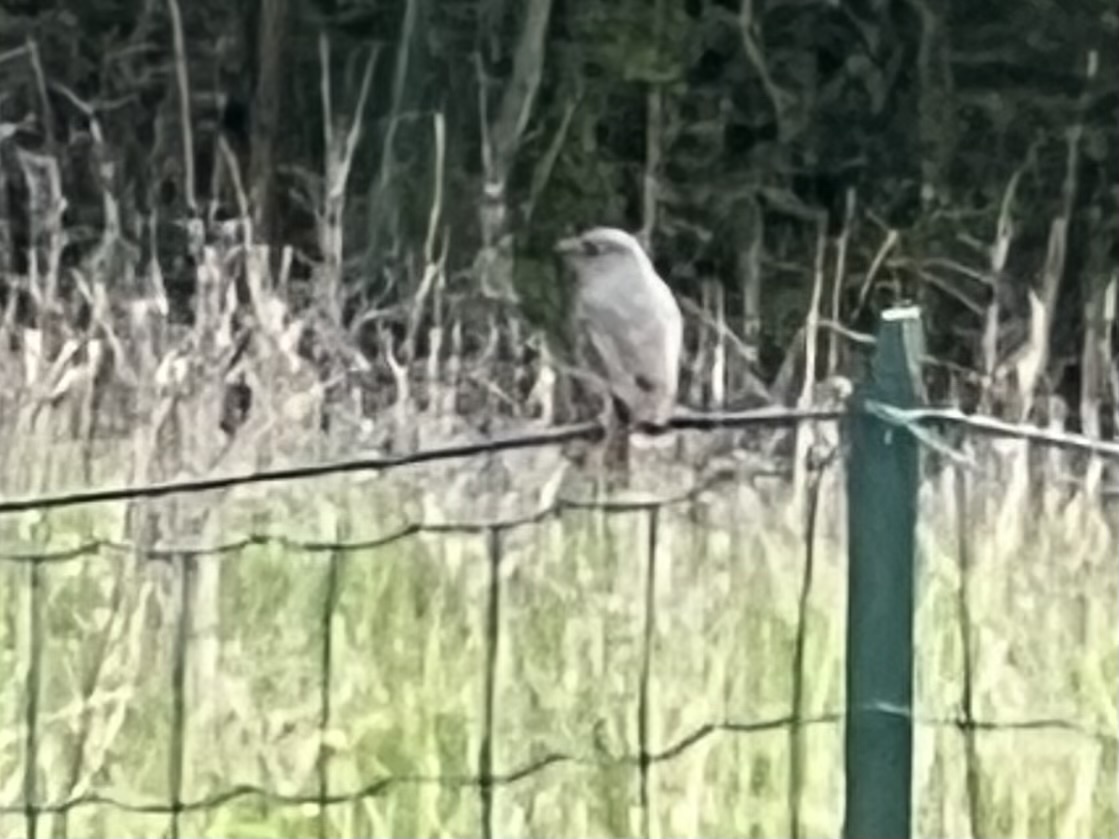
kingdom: Animalia
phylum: Chordata
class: Aves
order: Passeriformes
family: Muscicapidae
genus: Phoenicurus
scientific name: Phoenicurus ochruros
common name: Black redstart
